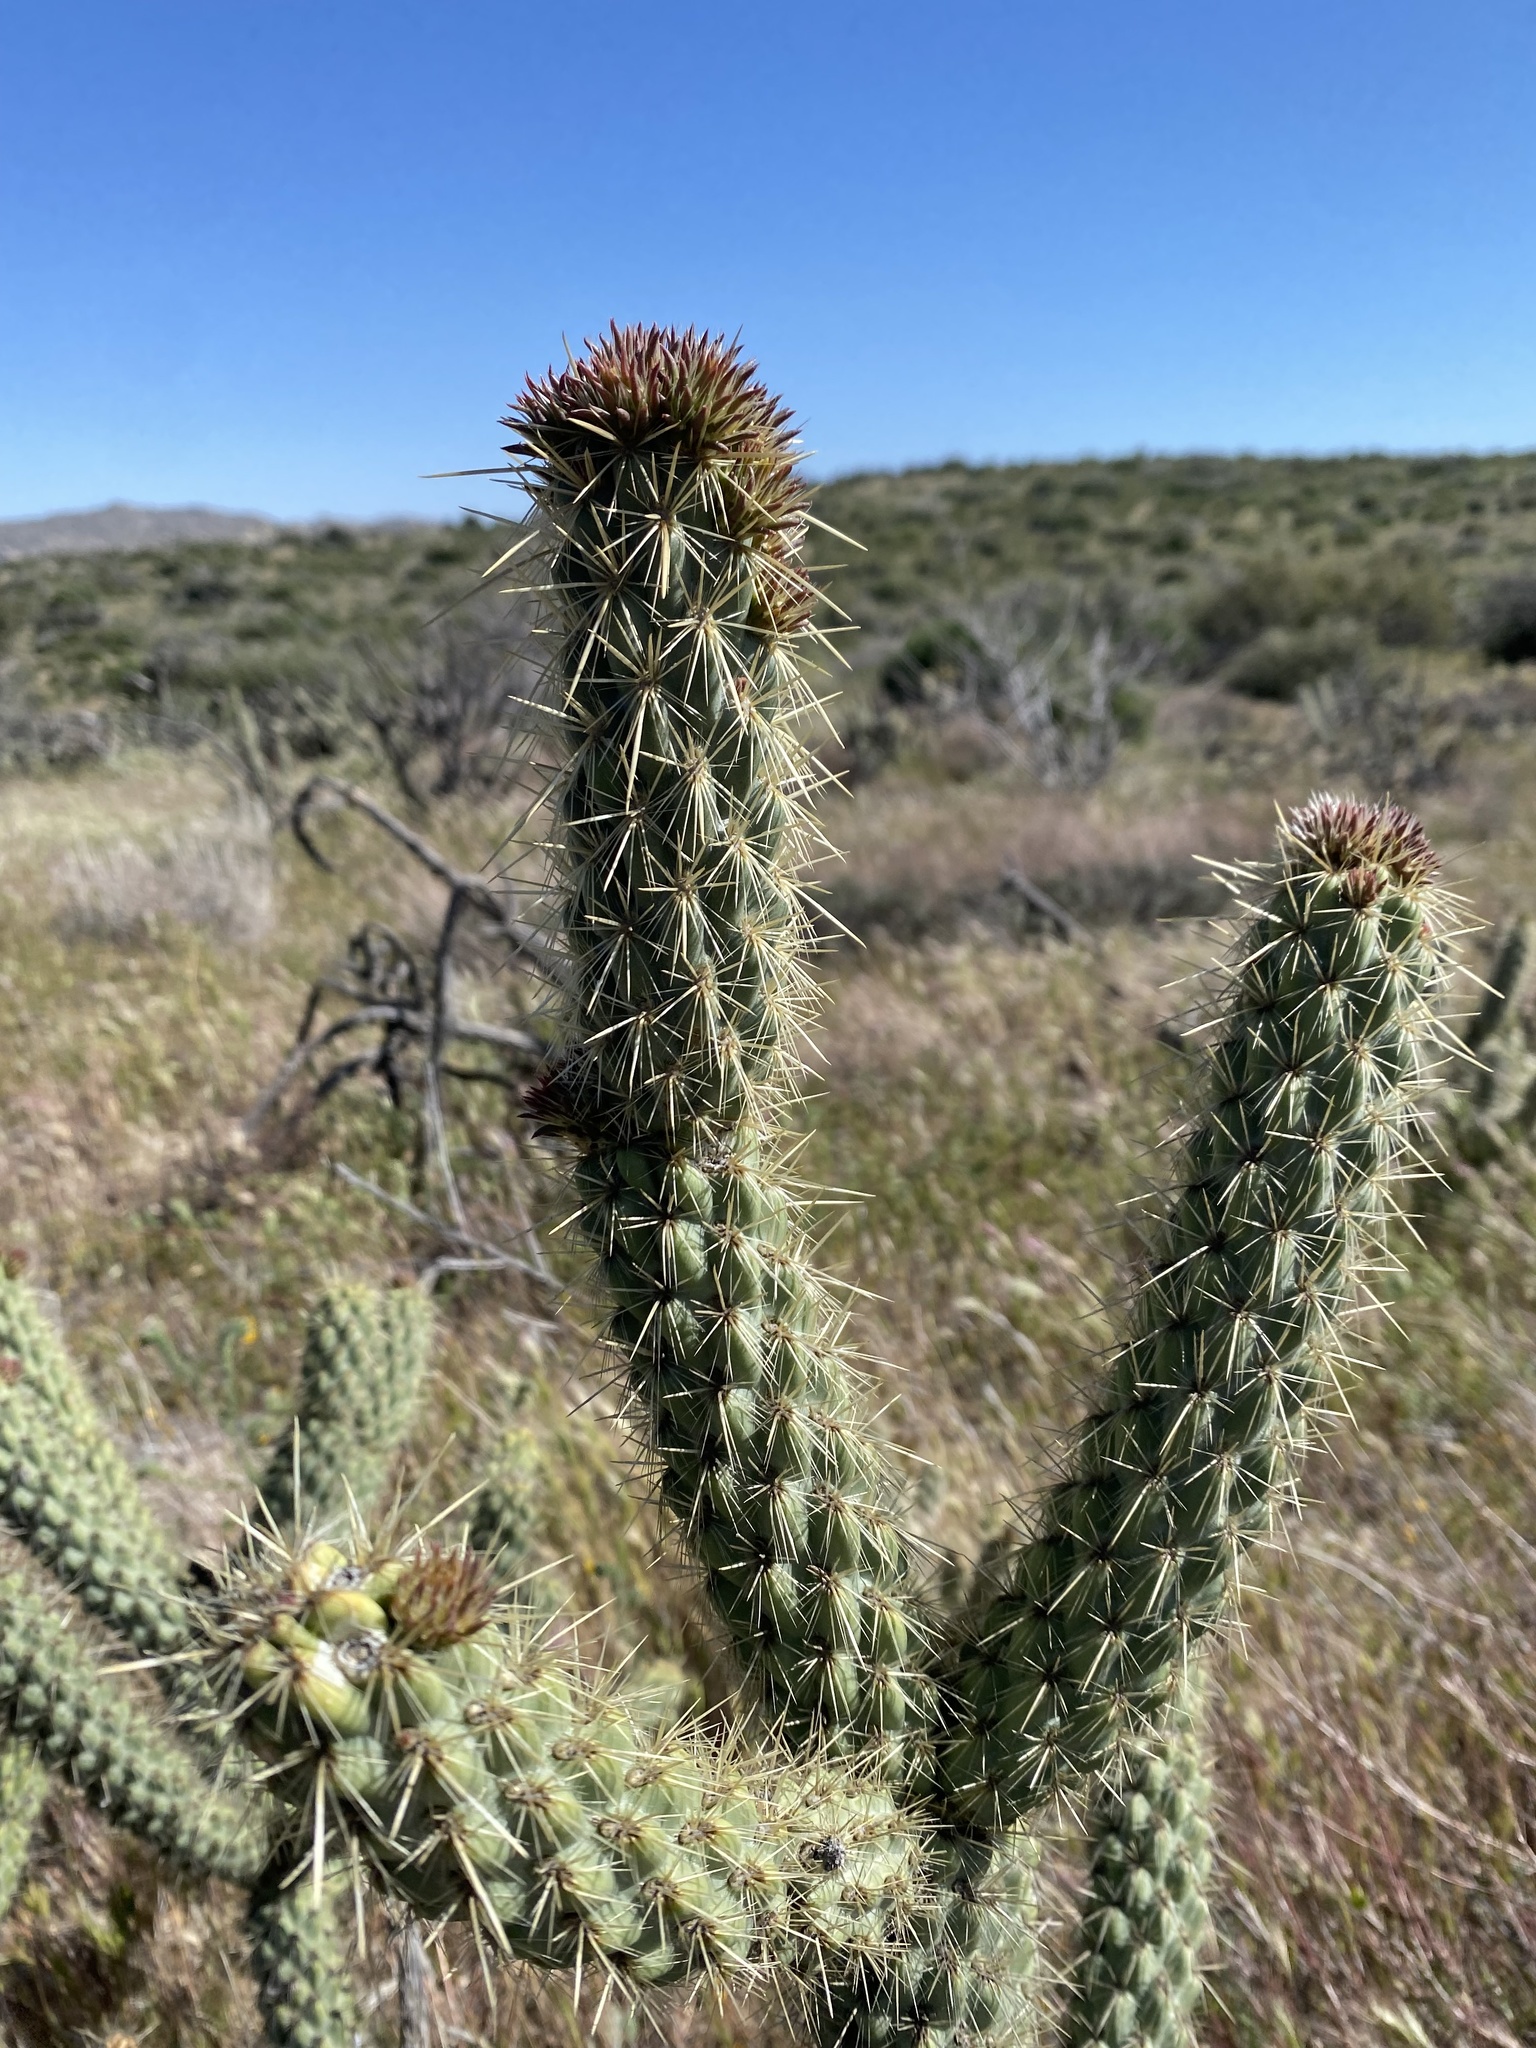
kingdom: Plantae
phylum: Tracheophyta
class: Liliopsida
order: Asparagales
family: Asparagaceae
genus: Hesperoyucca
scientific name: Hesperoyucca whipplei
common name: Our lord's-candle
